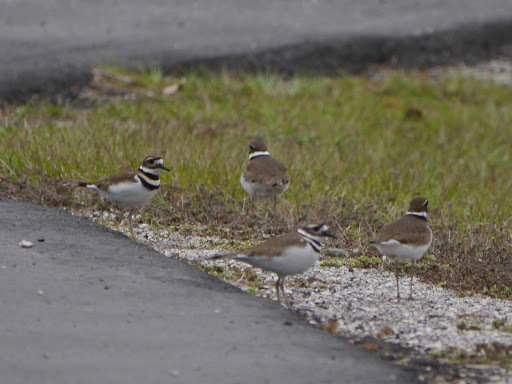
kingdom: Animalia
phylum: Chordata
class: Aves
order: Charadriiformes
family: Charadriidae
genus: Charadrius
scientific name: Charadrius vociferus
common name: Killdeer
